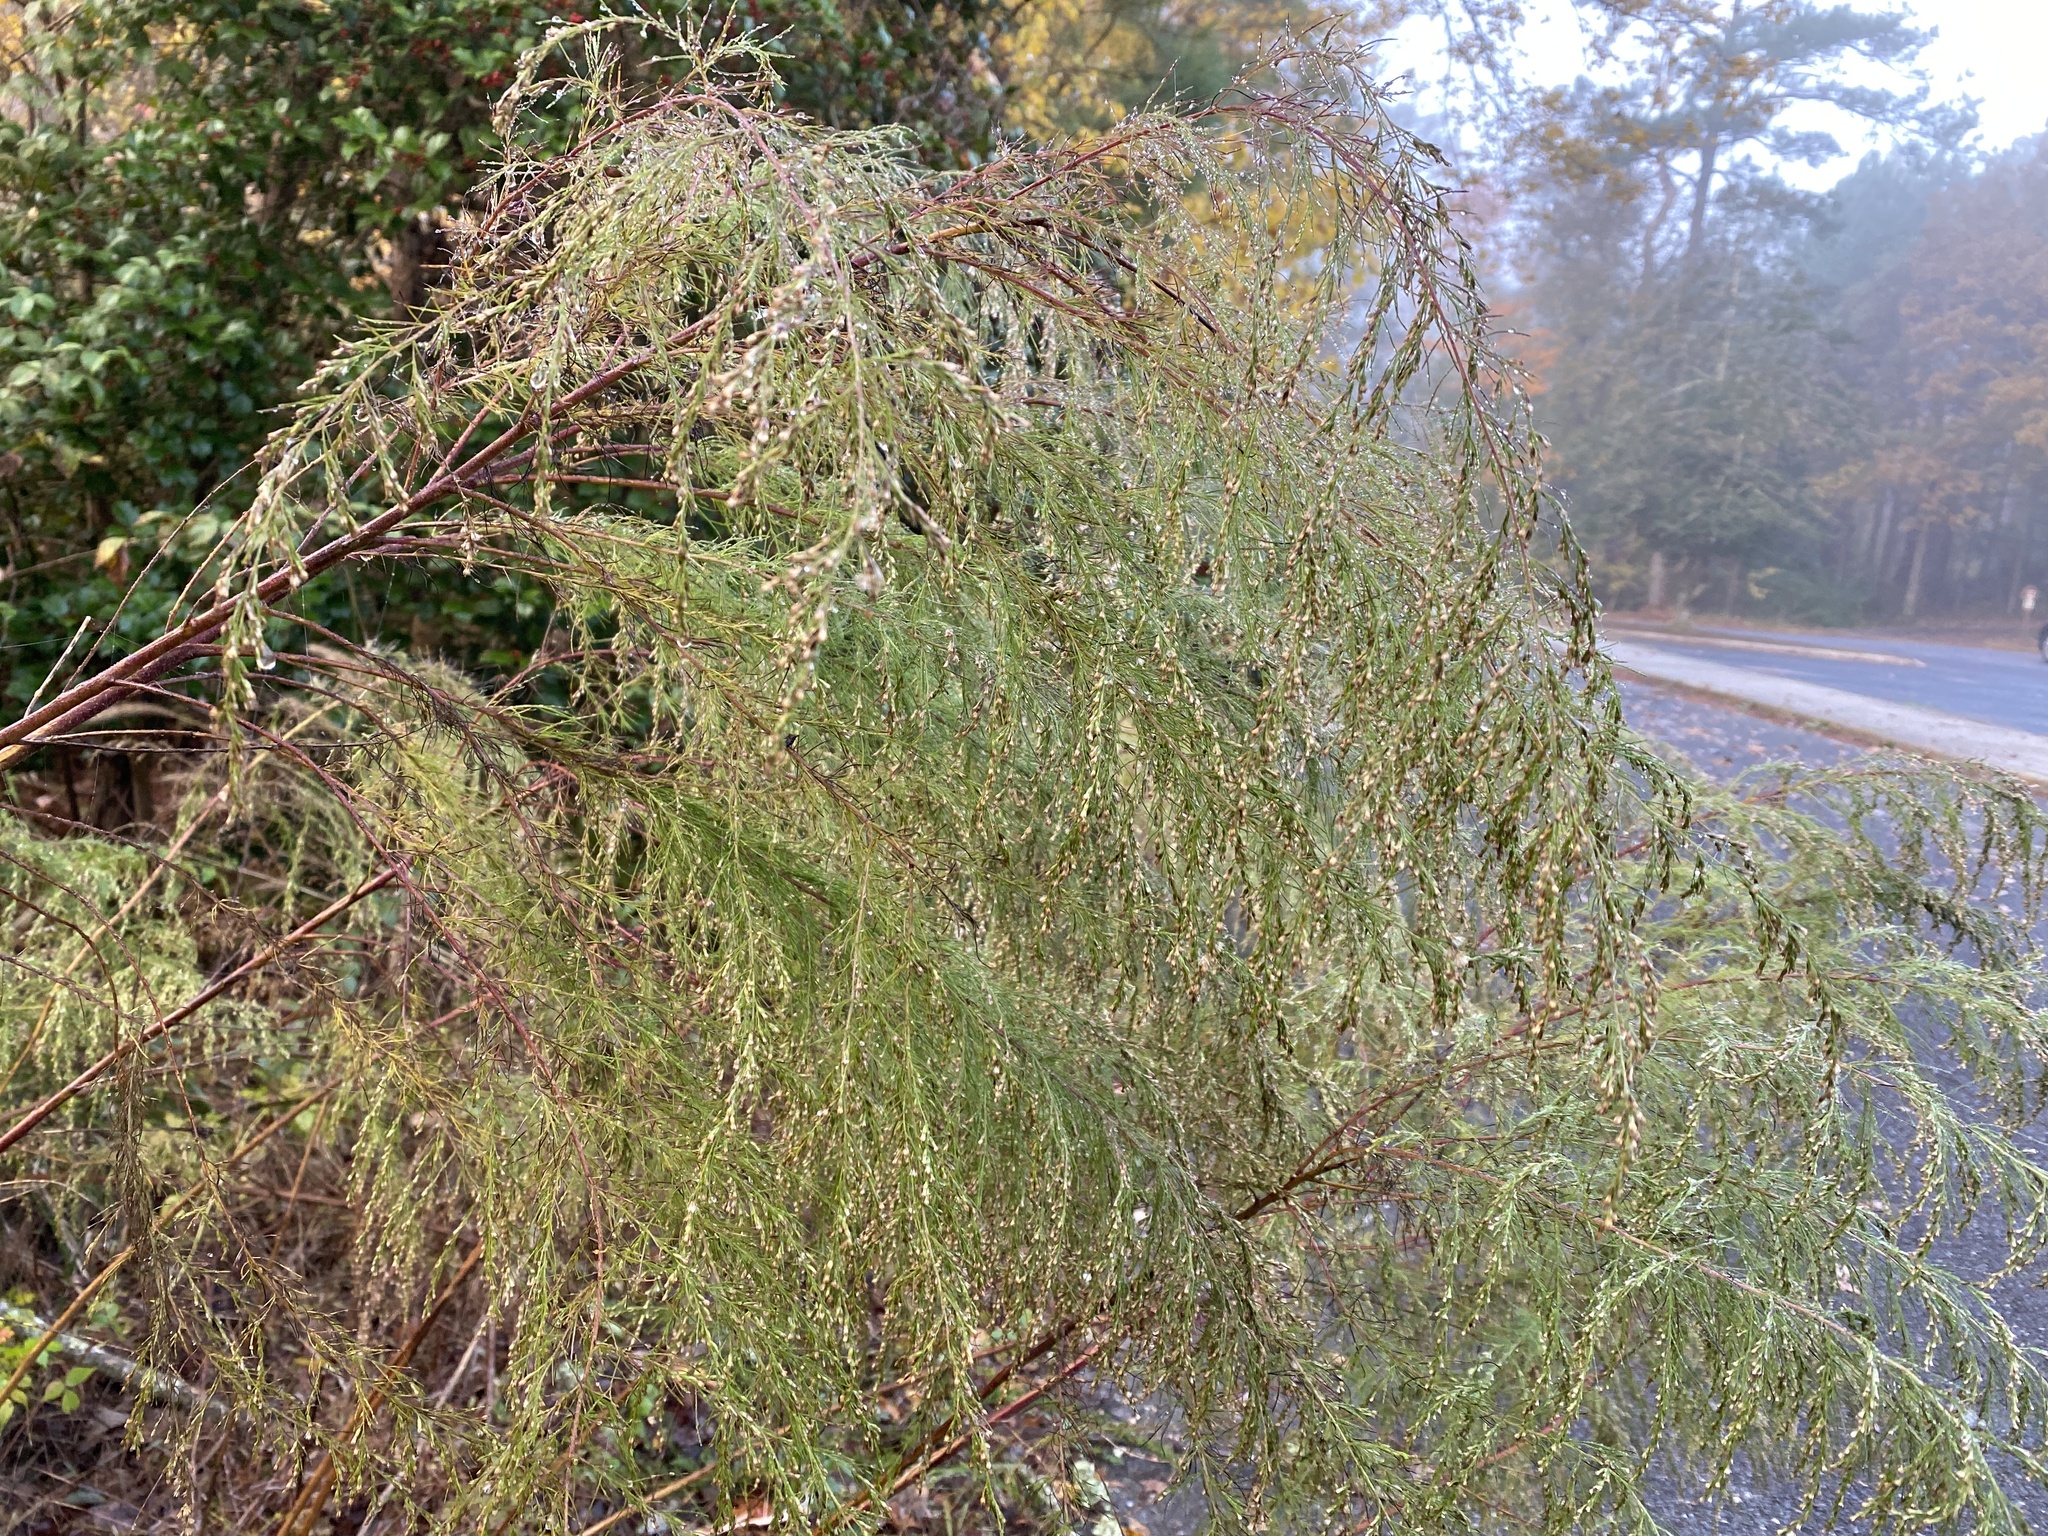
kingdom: Plantae
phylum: Tracheophyta
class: Magnoliopsida
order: Asterales
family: Asteraceae
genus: Eupatorium
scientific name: Eupatorium capillifolium
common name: Dog-fennel
